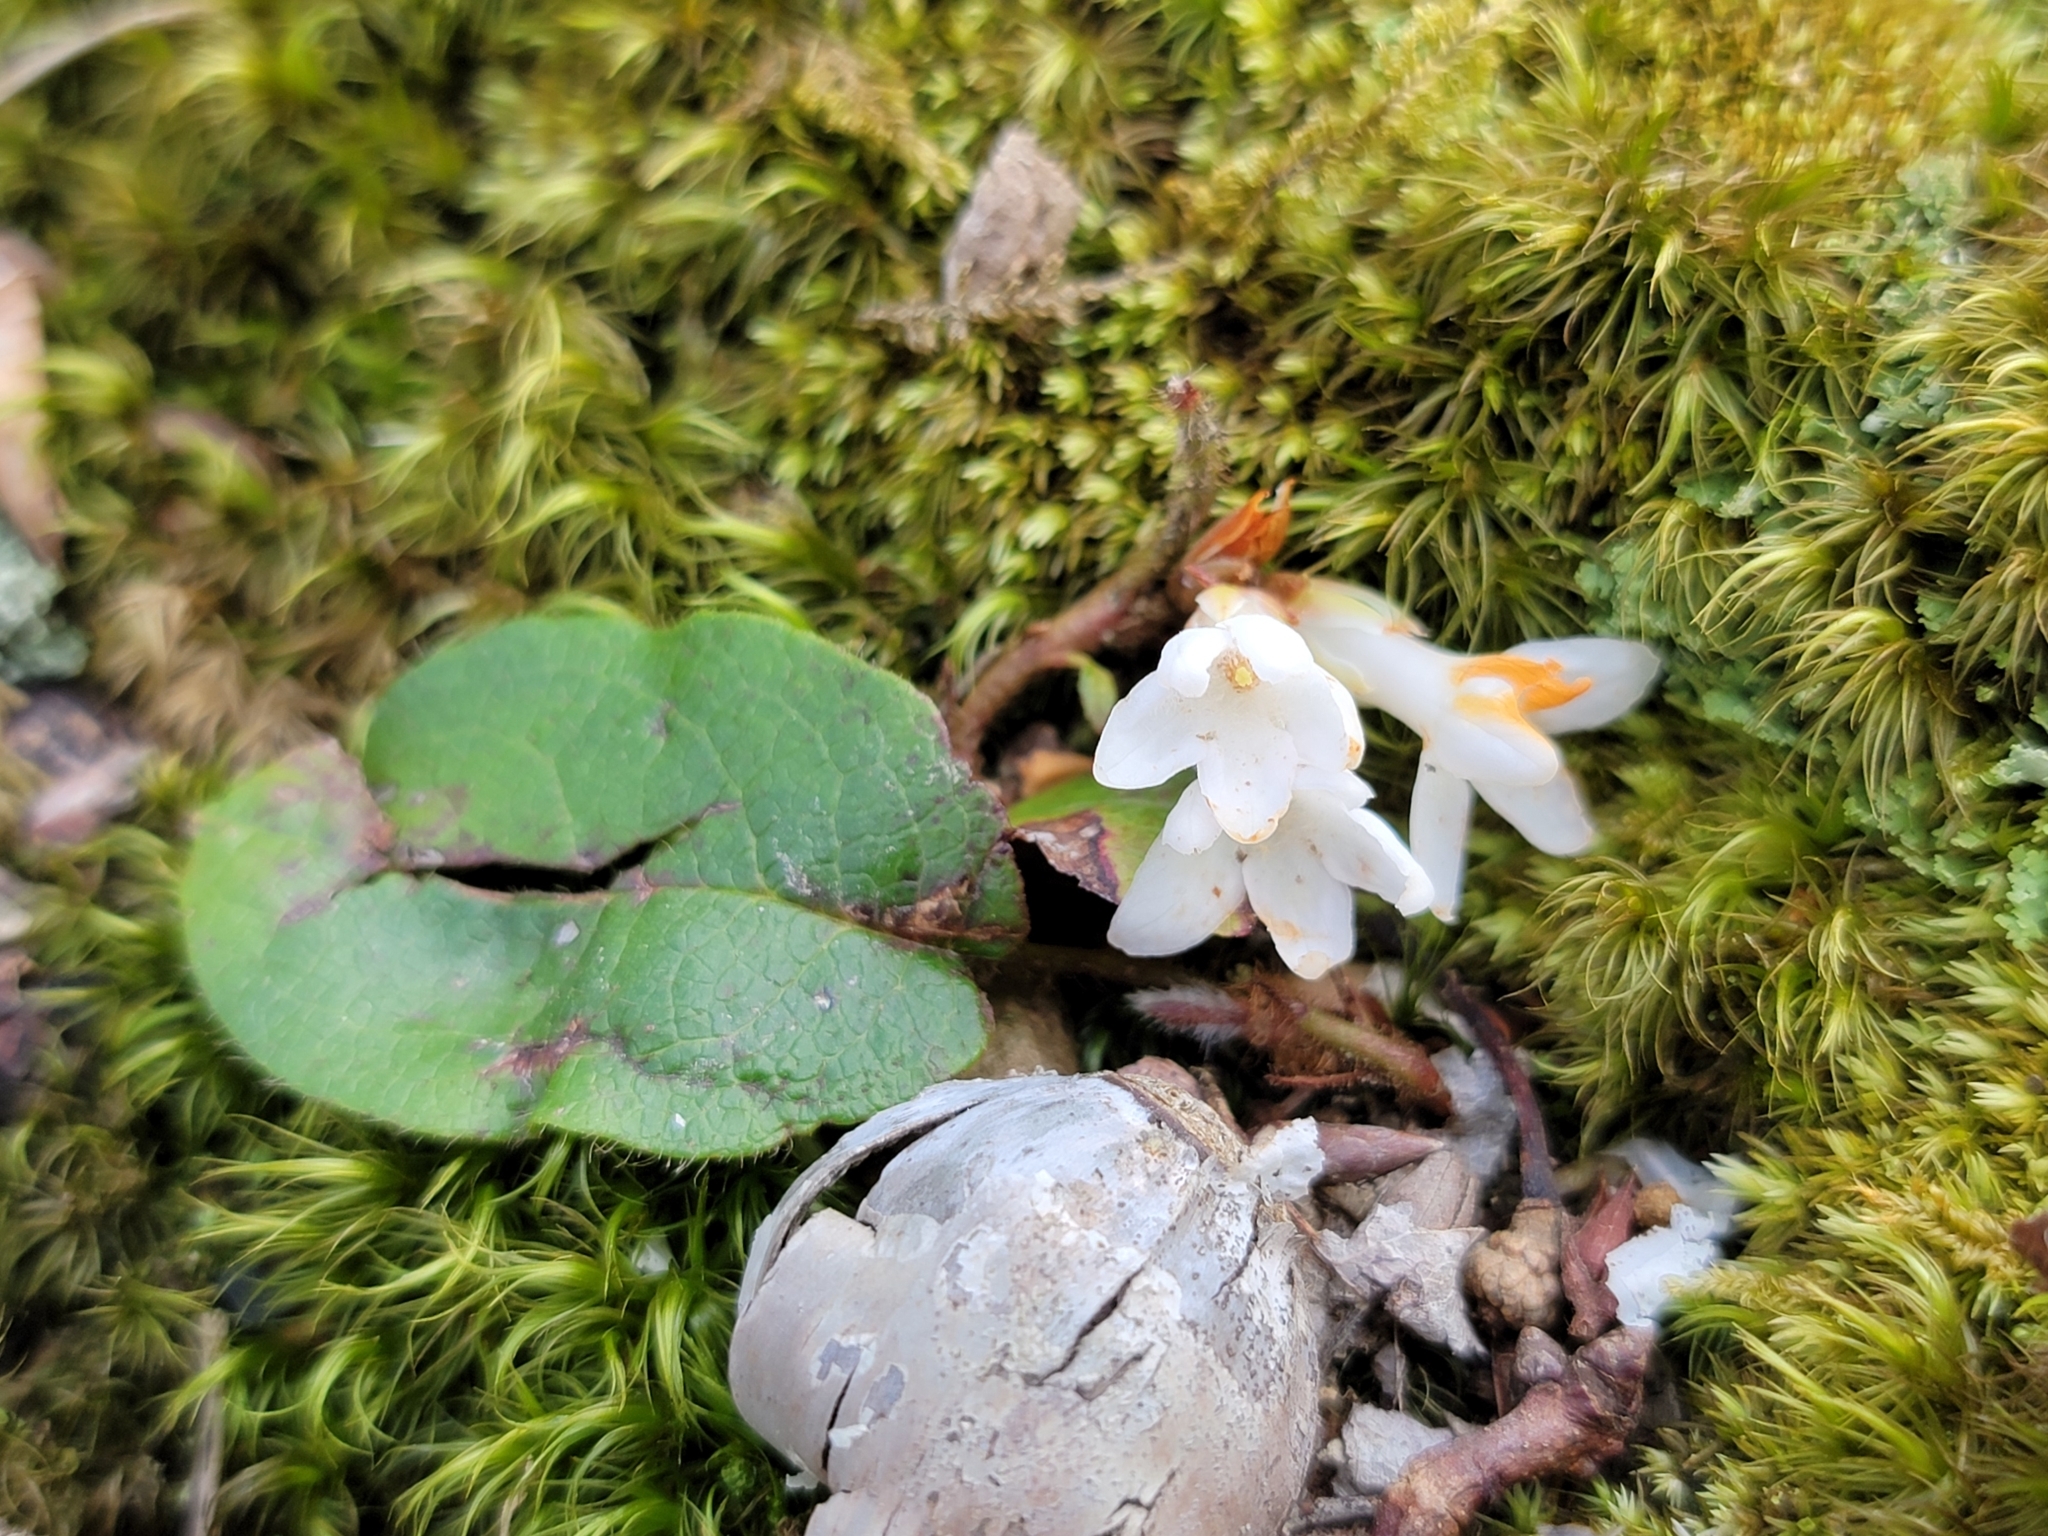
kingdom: Plantae
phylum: Tracheophyta
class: Magnoliopsida
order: Ericales
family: Ericaceae
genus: Epigaea
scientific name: Epigaea repens
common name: Gravelroot
